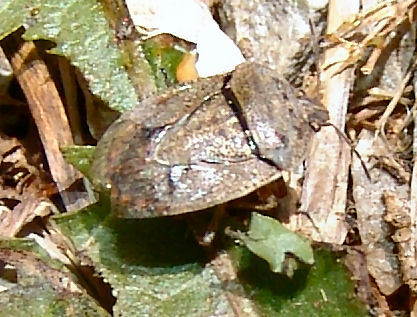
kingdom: Animalia
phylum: Arthropoda
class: Insecta
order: Hemiptera
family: Pentatomidae
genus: Hymenarcys
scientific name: Hymenarcys nervosa
